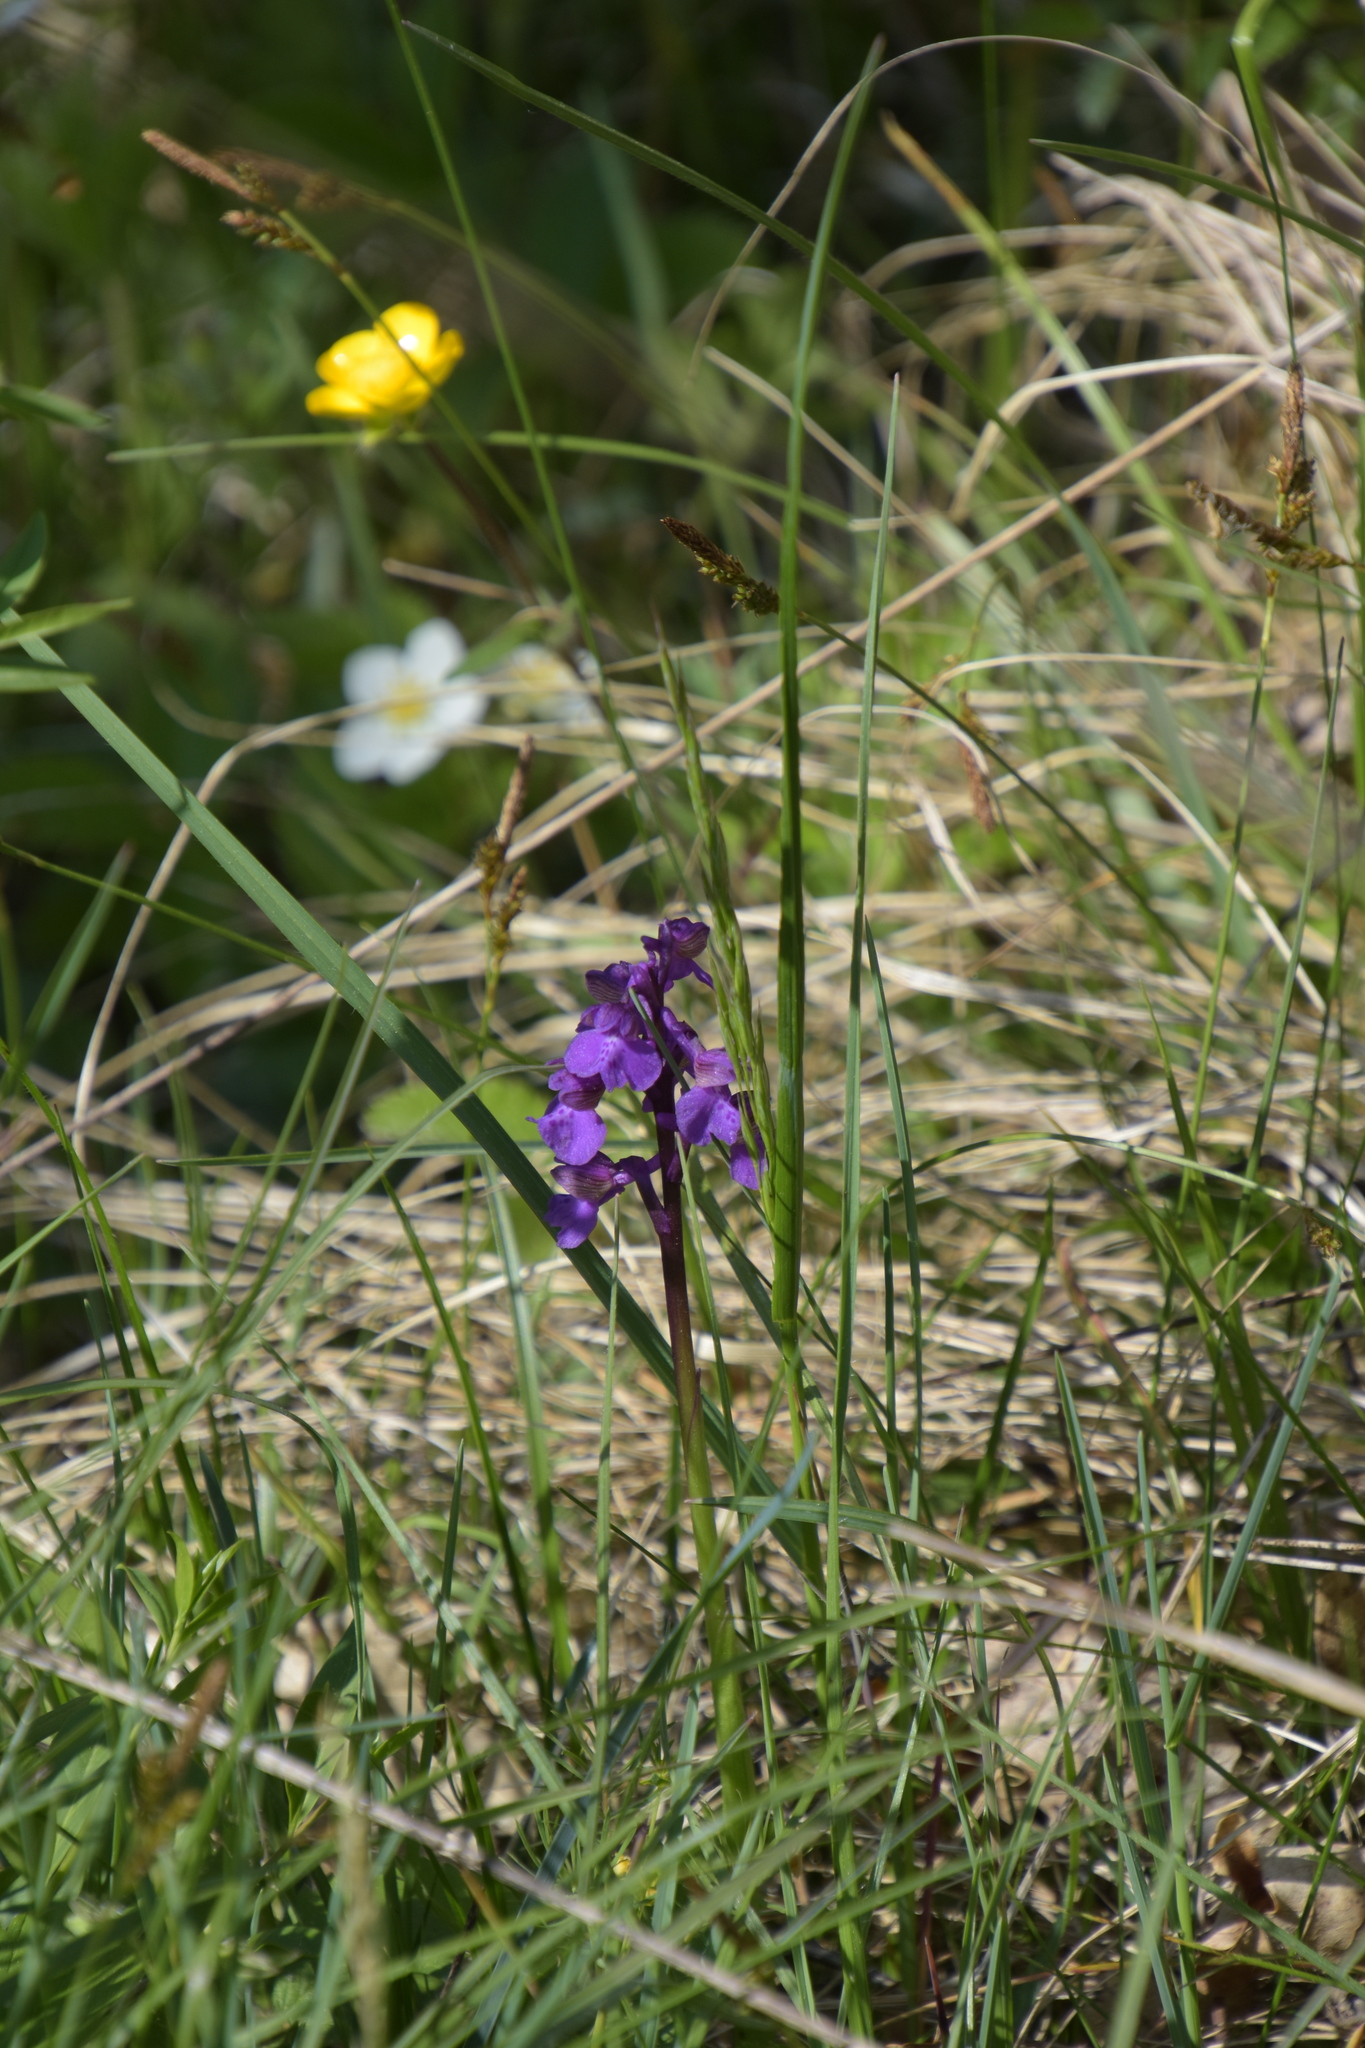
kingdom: Plantae
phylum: Tracheophyta
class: Liliopsida
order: Asparagales
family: Orchidaceae
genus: Anacamptis
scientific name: Anacamptis morio
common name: Green-winged orchid
